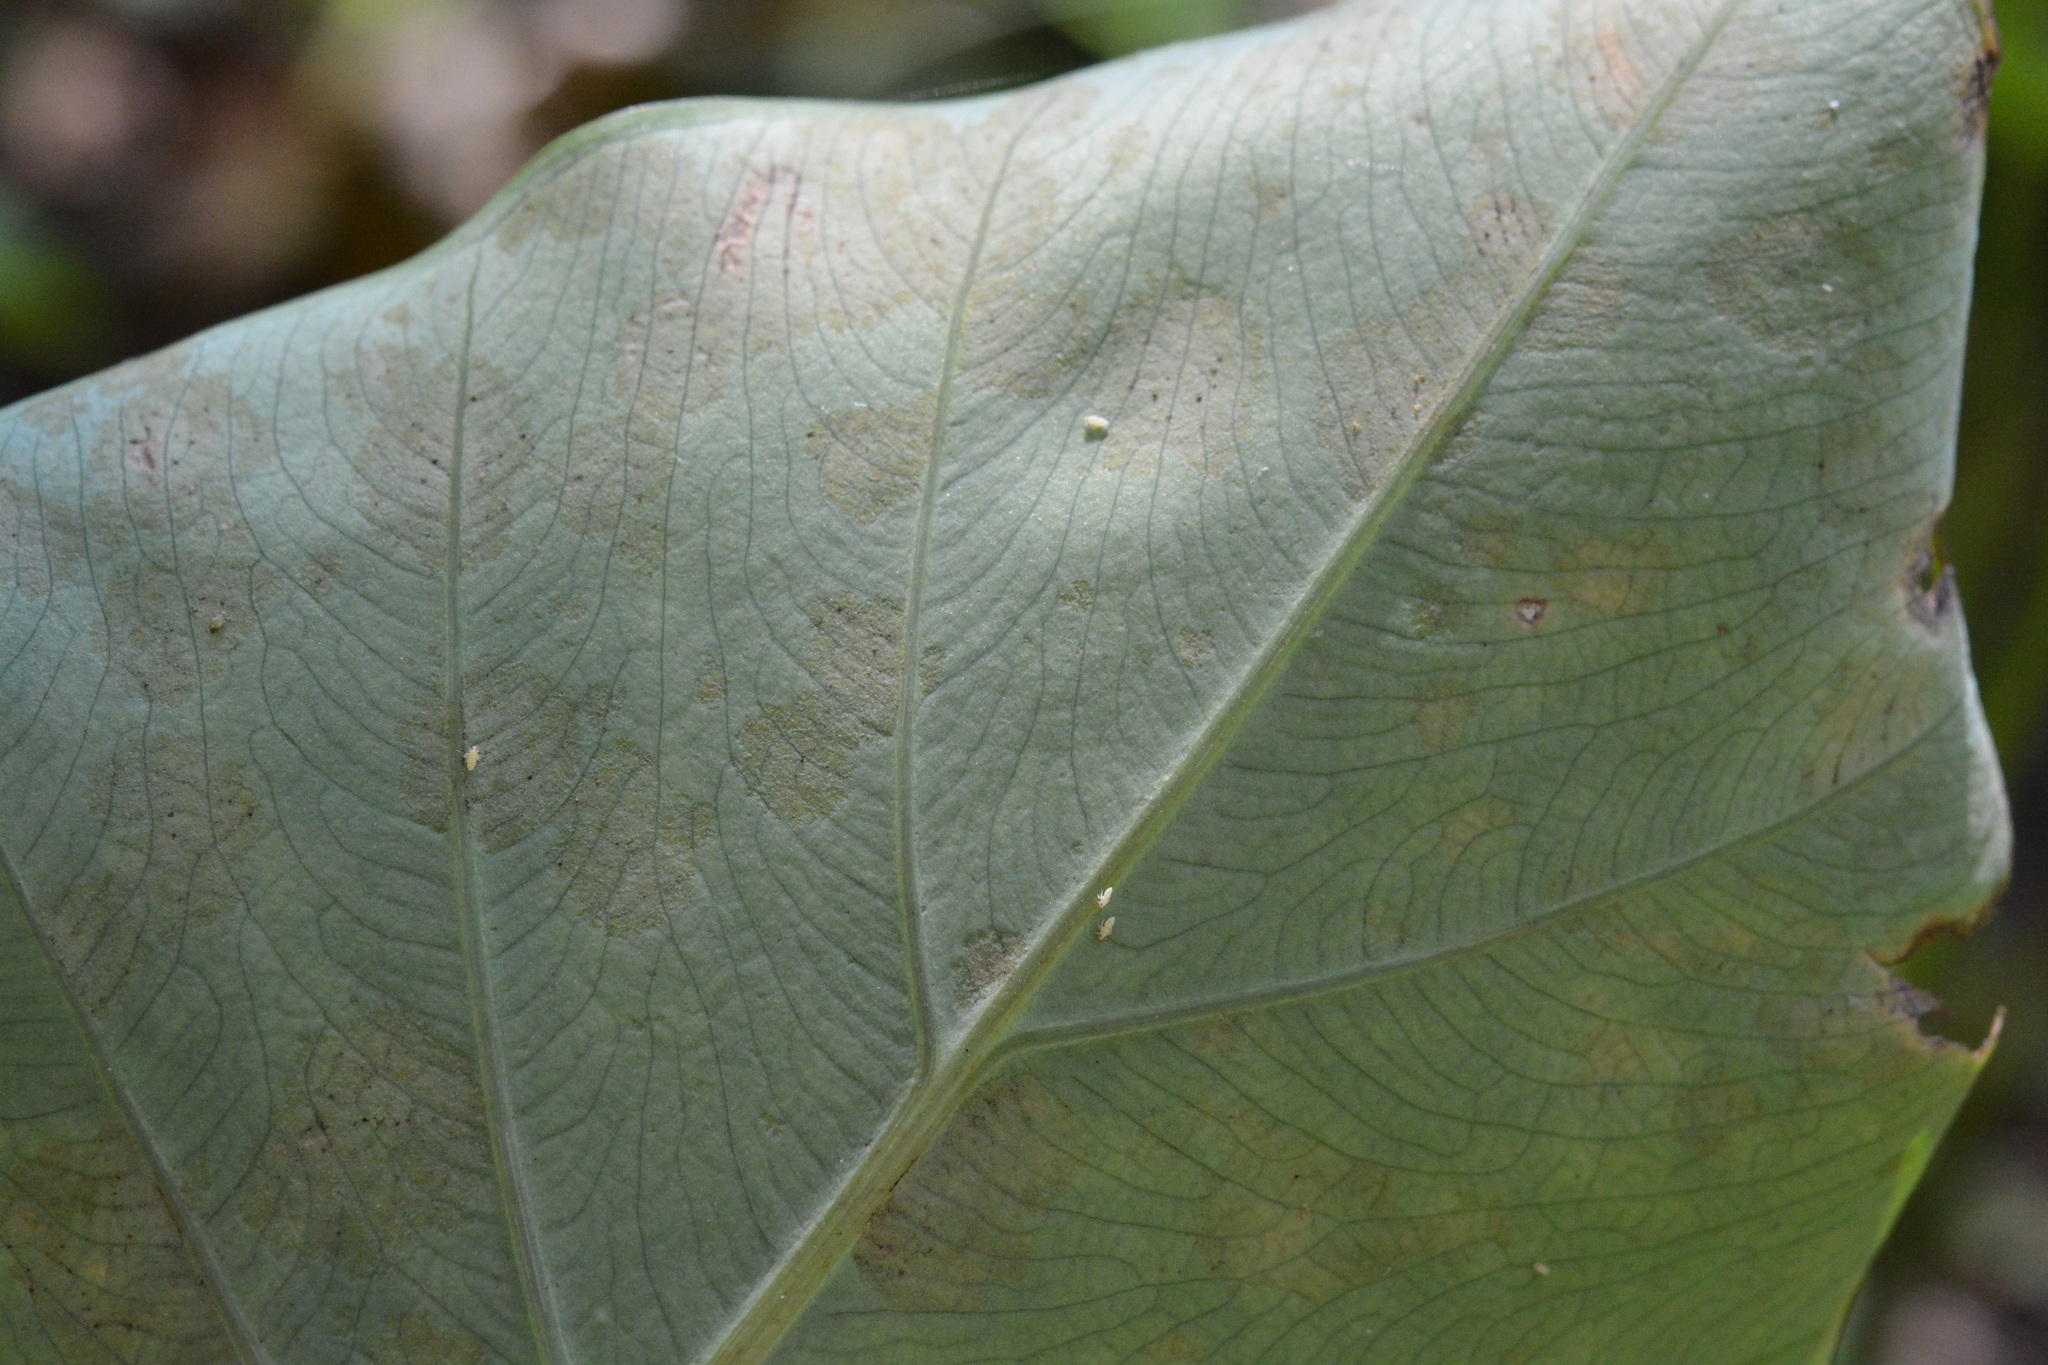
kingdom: Animalia
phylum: Arthropoda
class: Insecta
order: Hemiptera
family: Delphacidae
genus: Tarophagus
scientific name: Tarophagus colocasiae
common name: Taro planthopper
